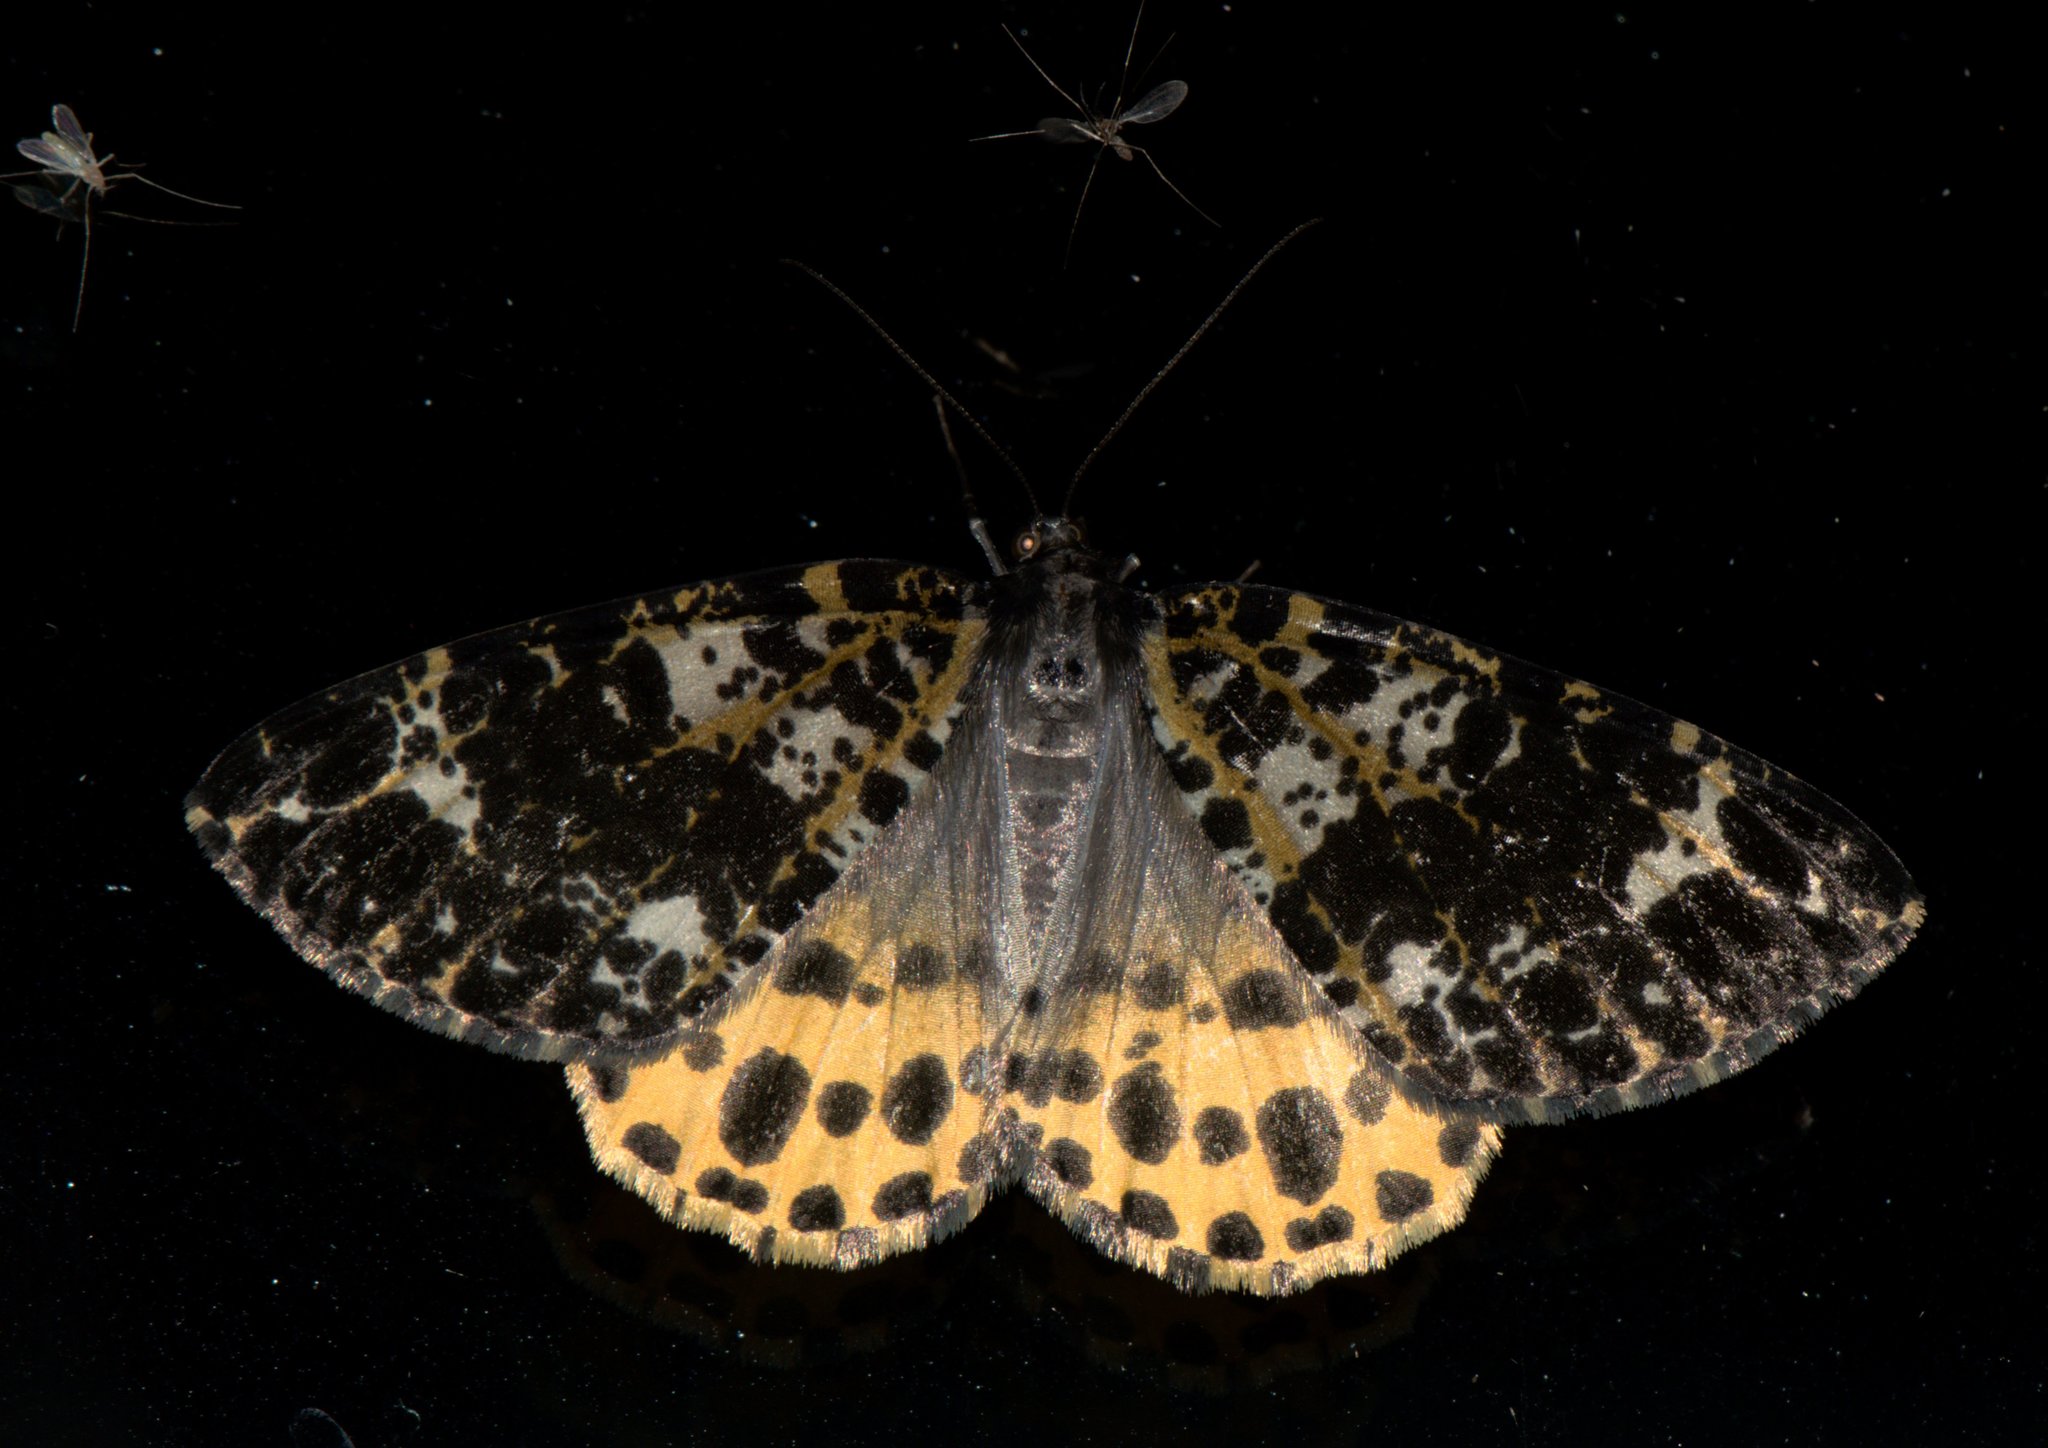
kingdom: Animalia
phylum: Arthropoda
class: Insecta
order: Lepidoptera
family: Geometridae
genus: Arichanna
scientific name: Arichanna sparsa
